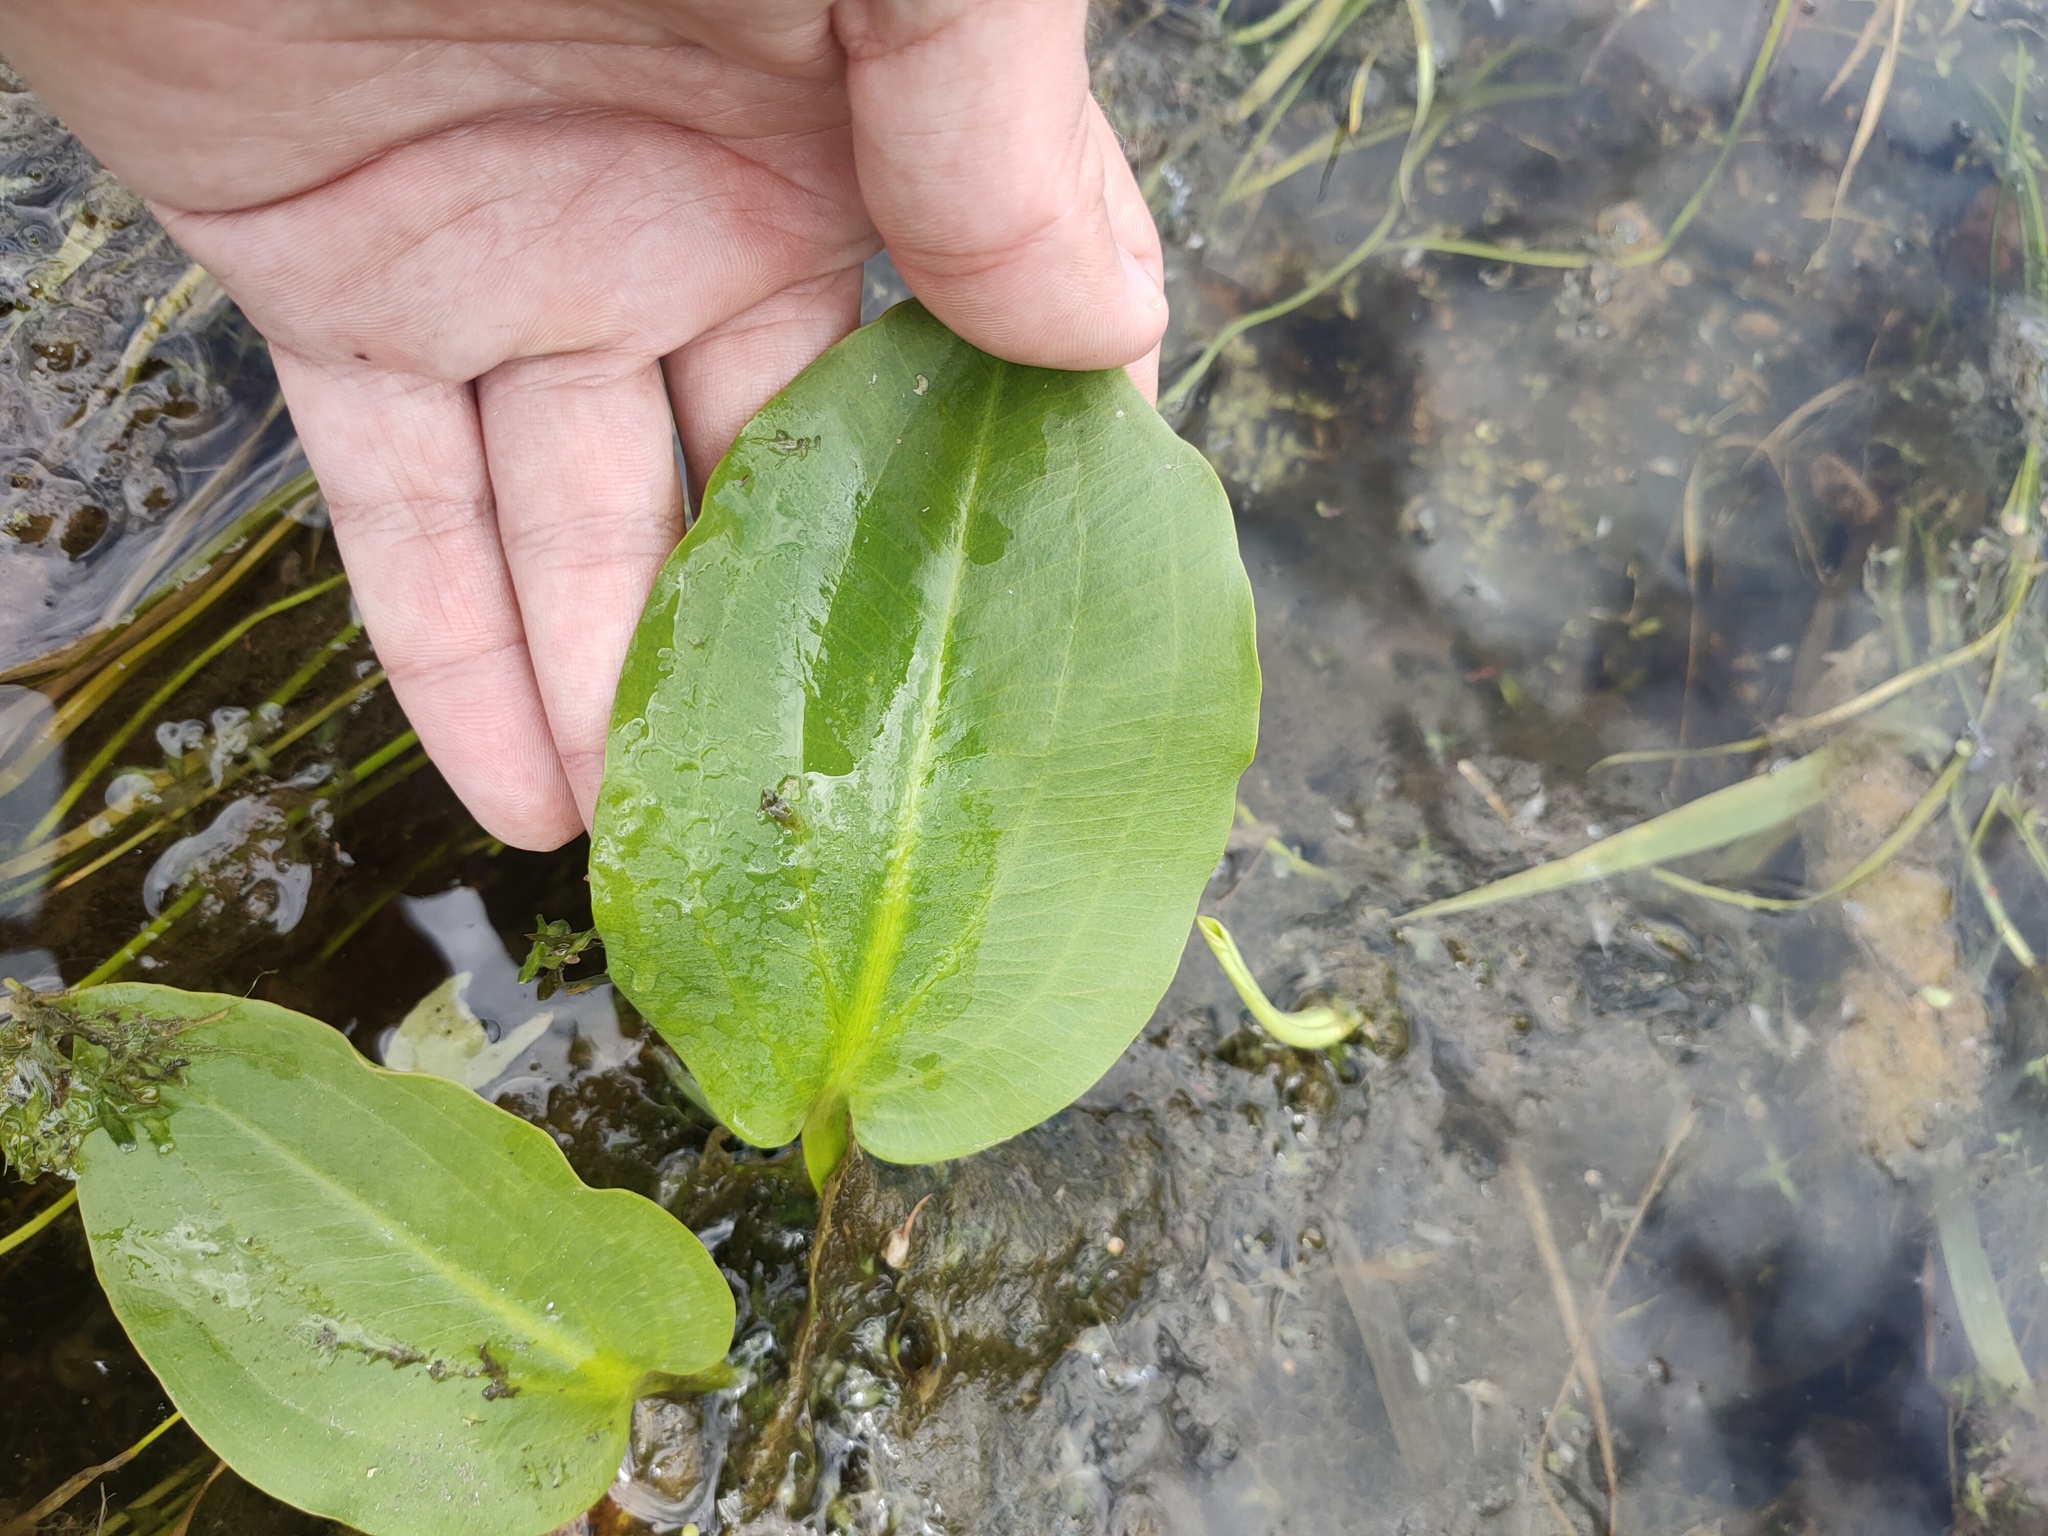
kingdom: Plantae
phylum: Tracheophyta
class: Liliopsida
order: Alismatales
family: Alismataceae
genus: Alisma
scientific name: Alisma plantago-aquatica
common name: Water-plantain
